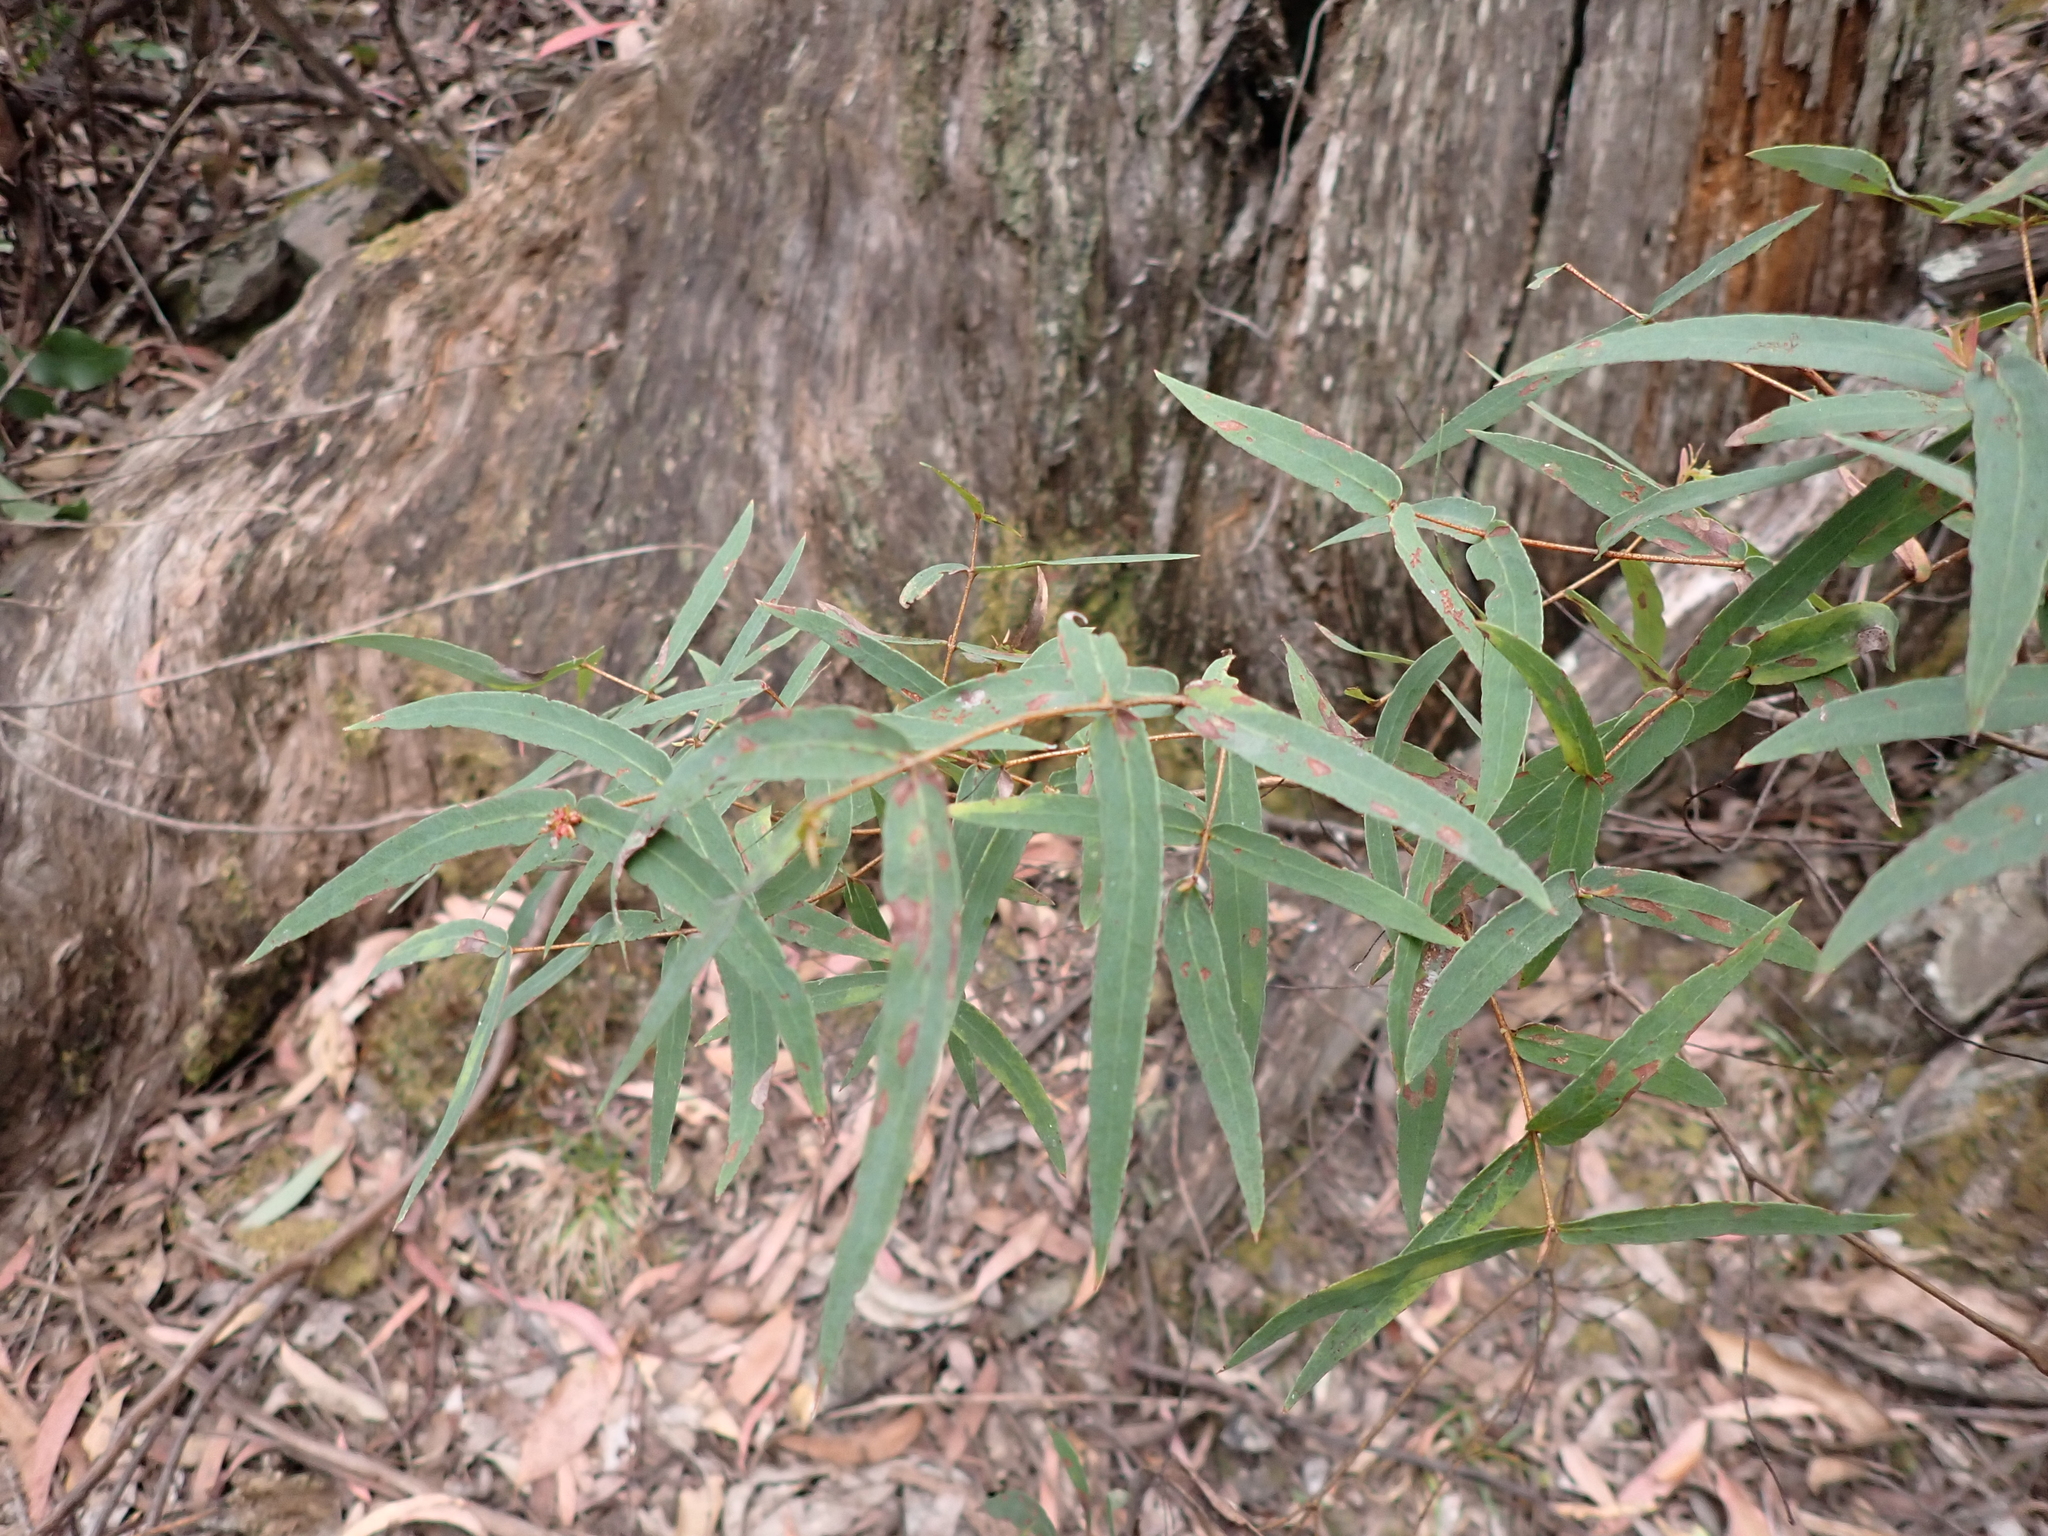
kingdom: Plantae
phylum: Tracheophyta
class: Magnoliopsida
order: Myrtales
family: Myrtaceae
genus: Eucalyptus
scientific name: Eucalyptus radiata
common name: Narrow-leaved-peppermint
